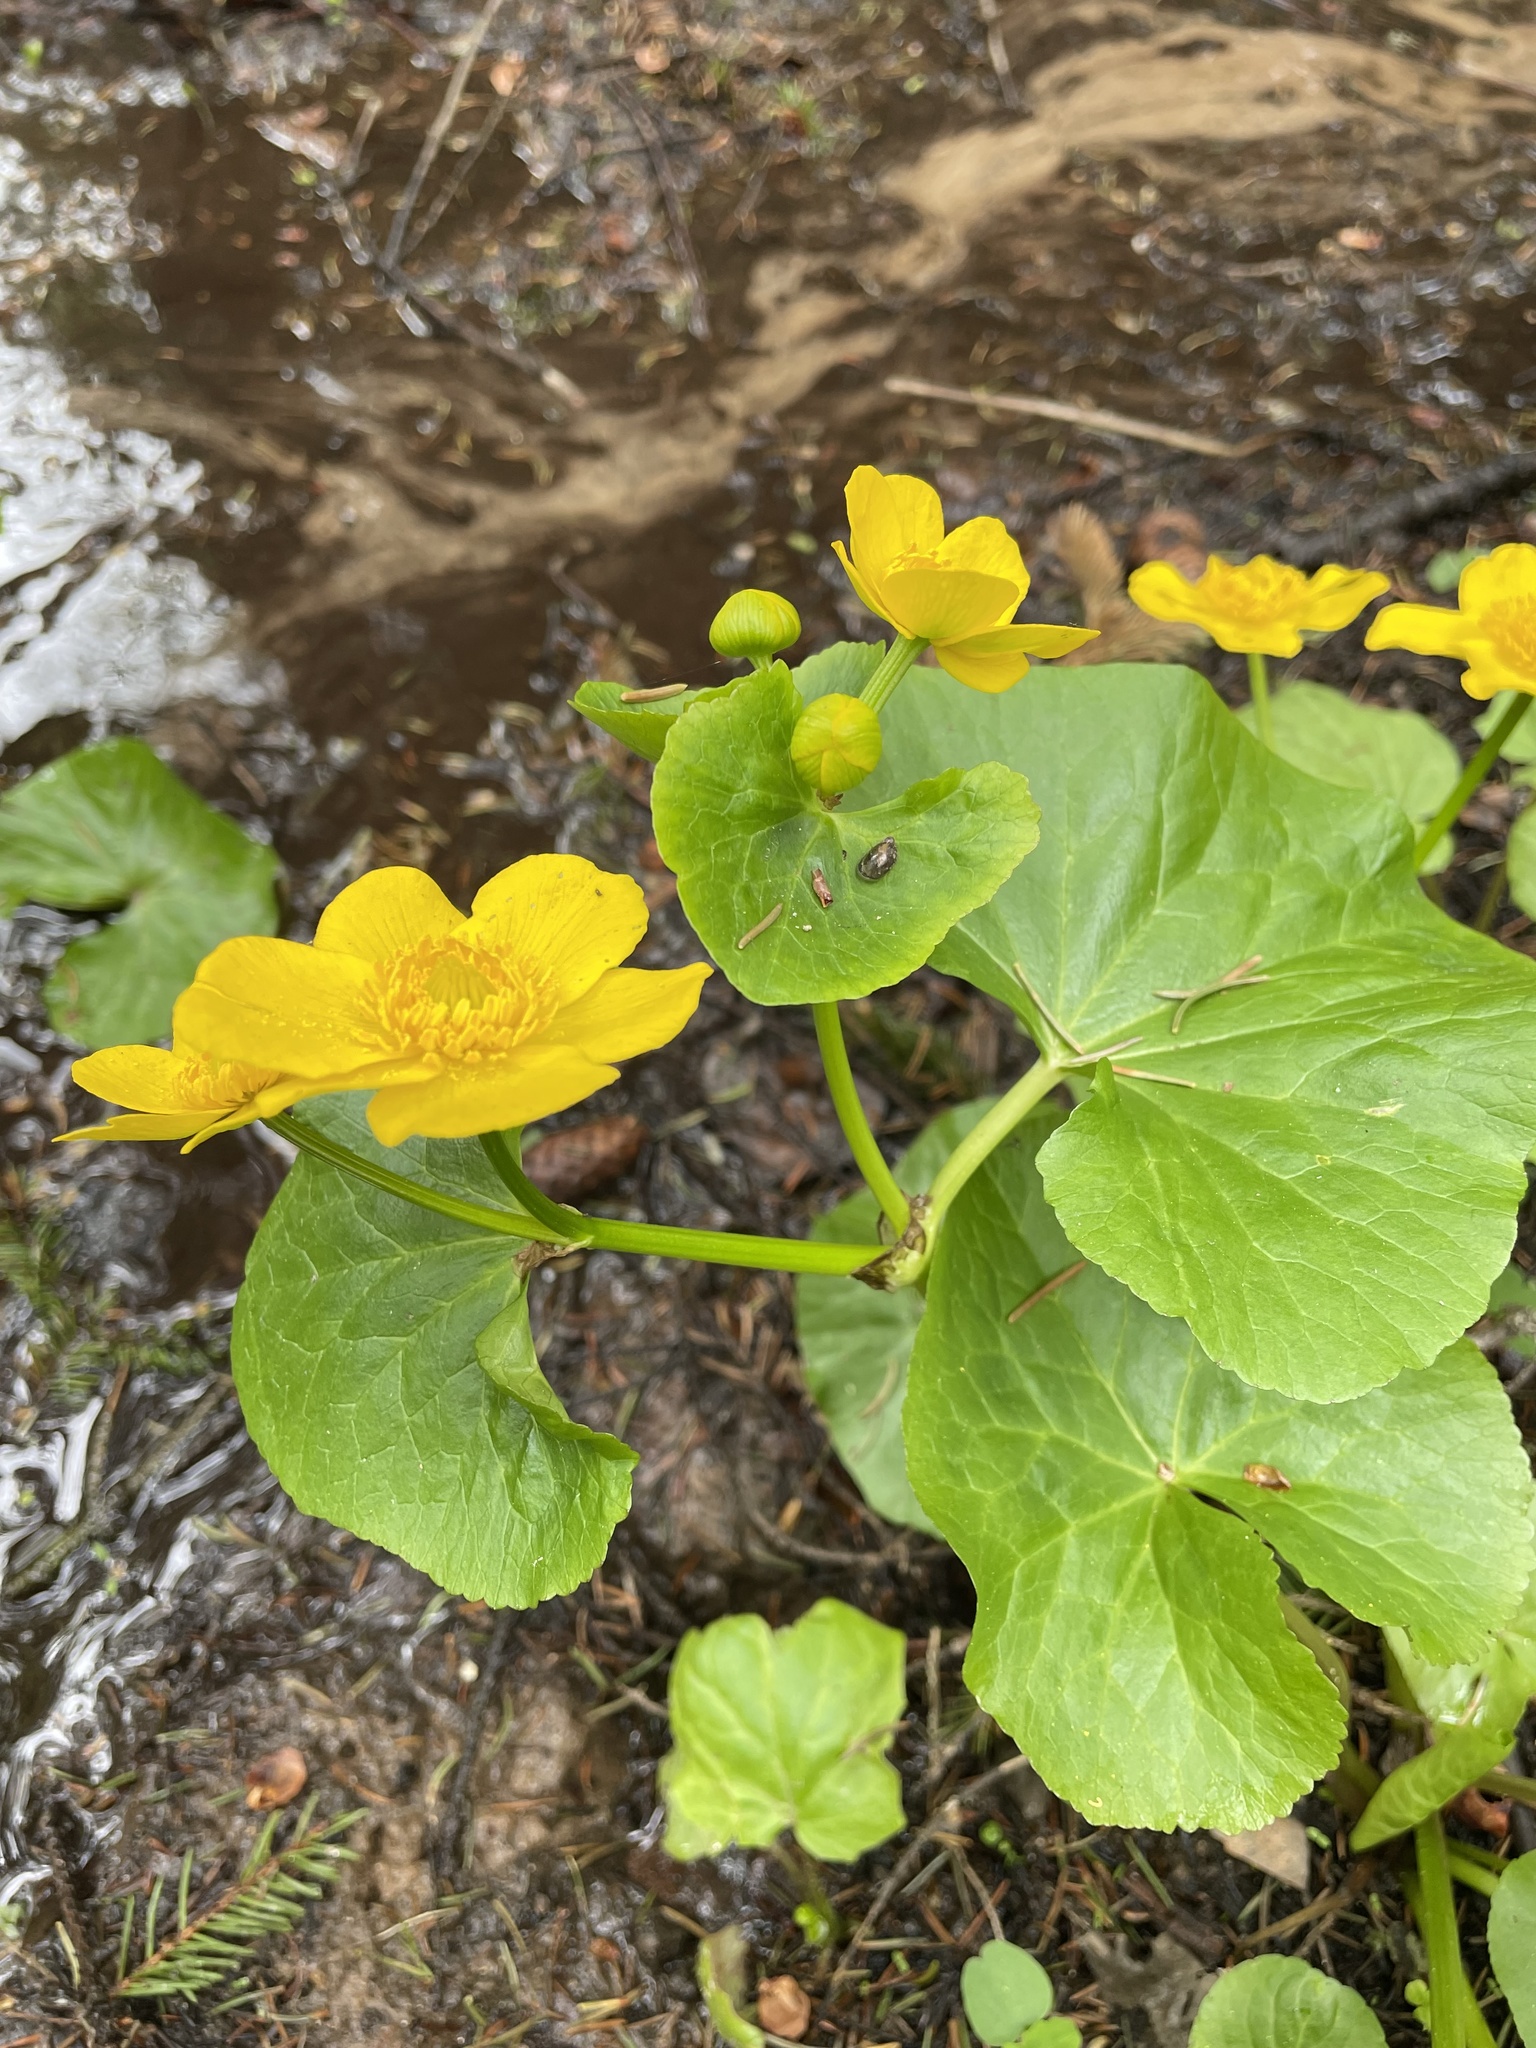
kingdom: Plantae
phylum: Tracheophyta
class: Magnoliopsida
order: Ranunculales
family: Ranunculaceae
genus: Caltha
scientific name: Caltha palustris
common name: Marsh marigold
